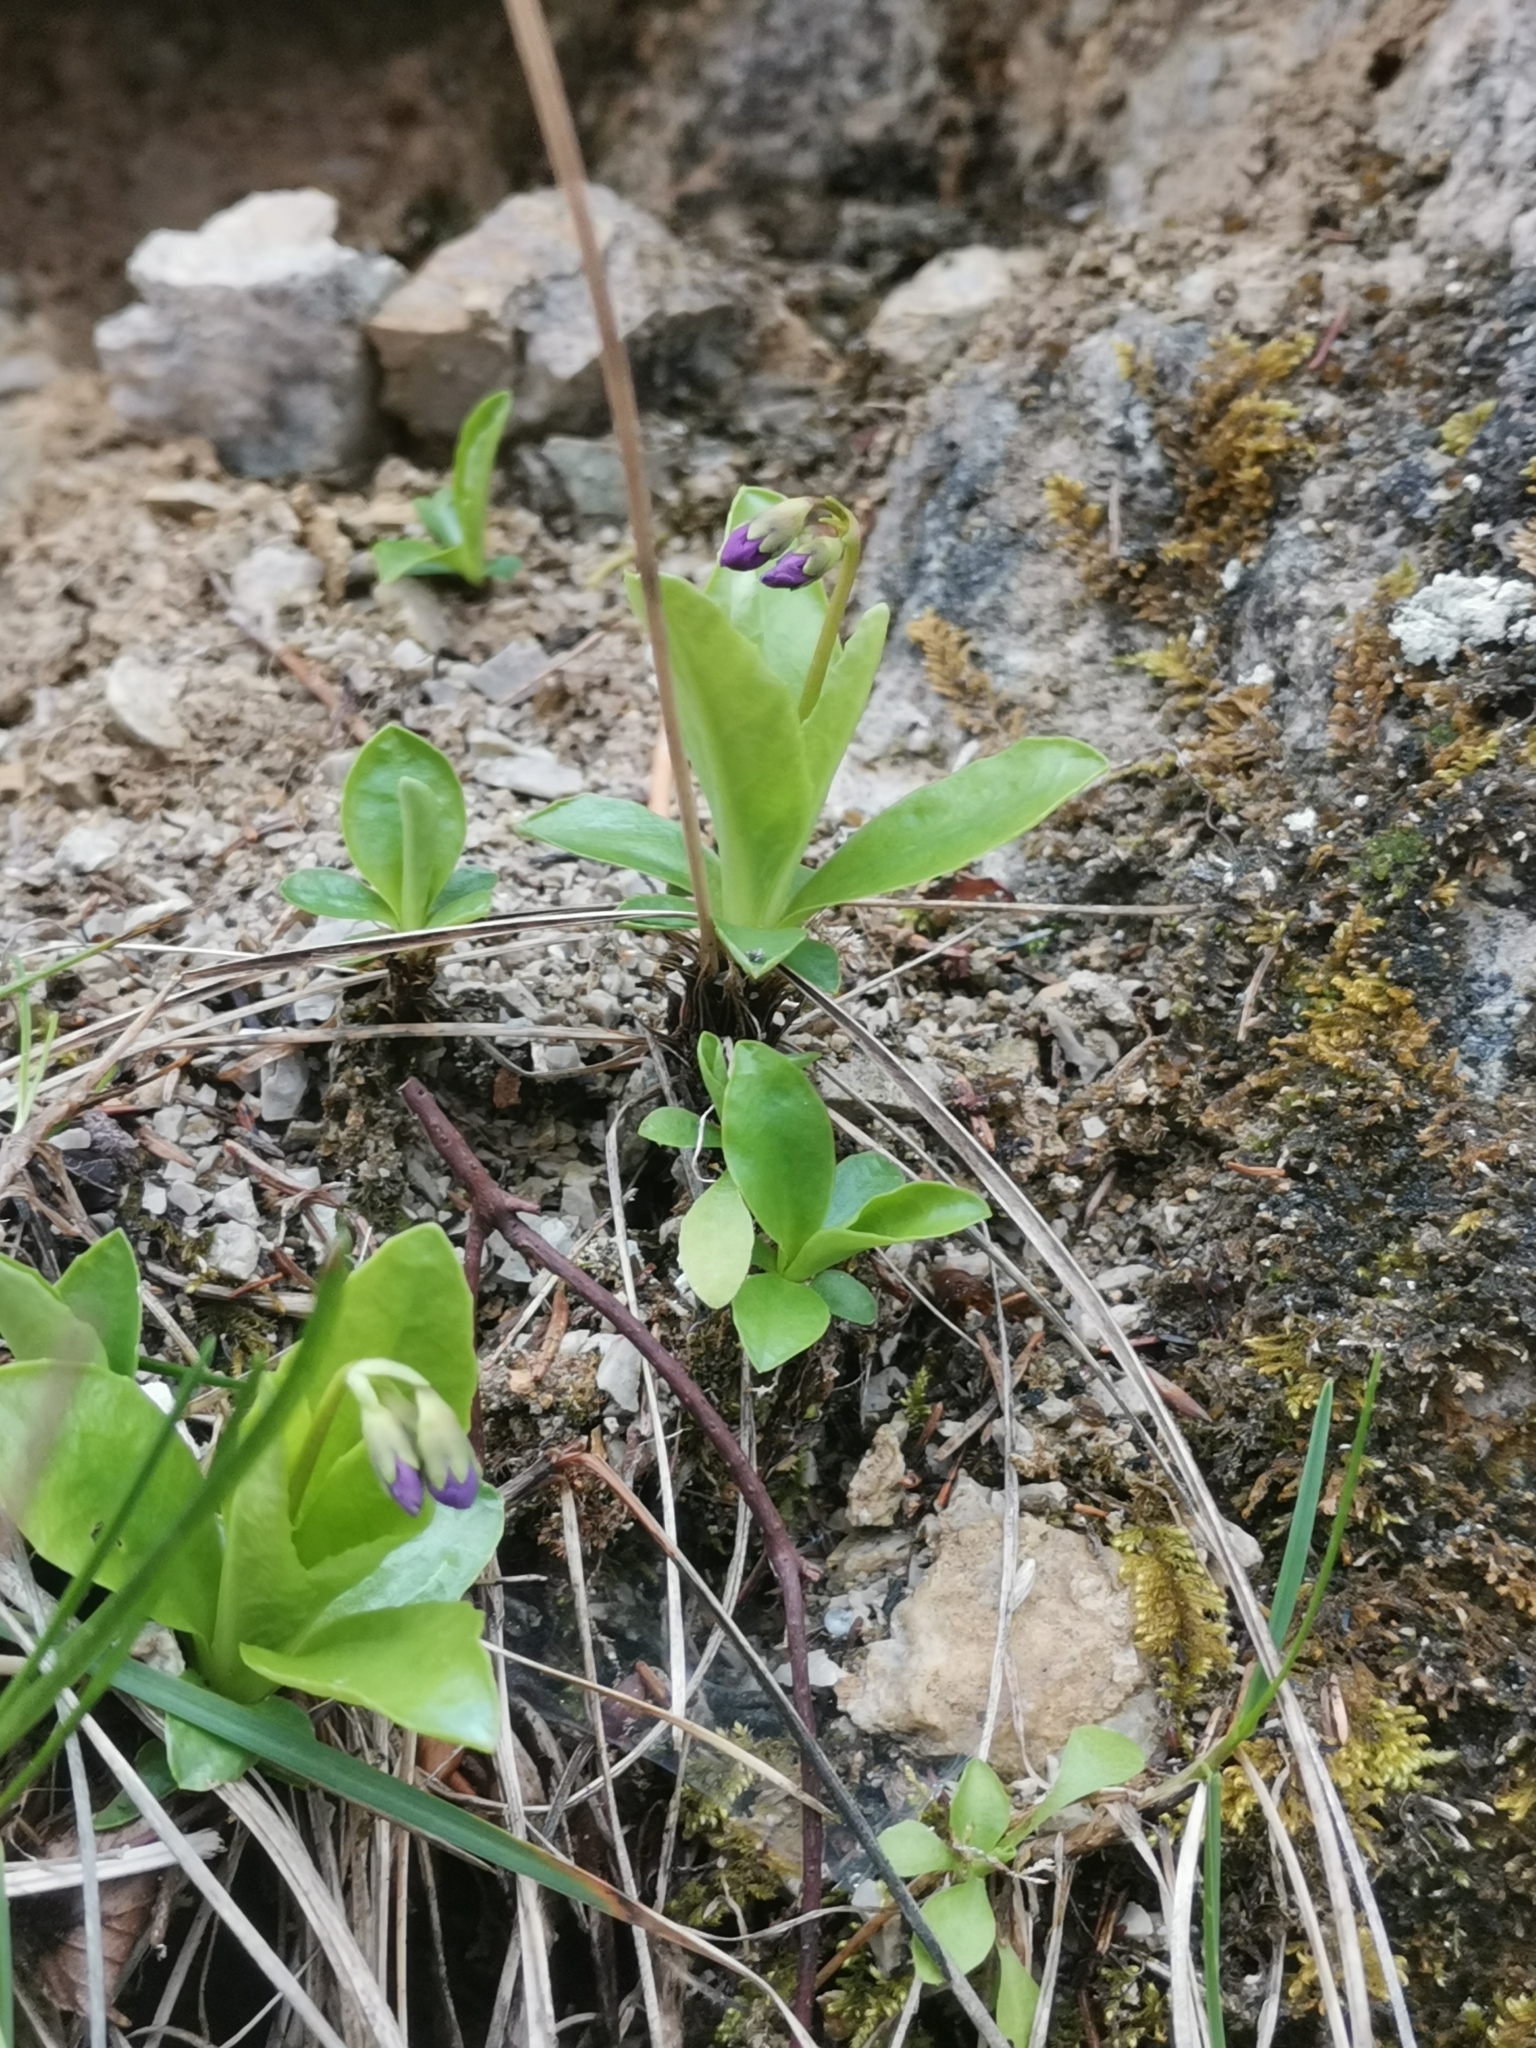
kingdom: Plantae
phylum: Tracheophyta
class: Magnoliopsida
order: Ericales
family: Primulaceae
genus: Primula
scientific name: Primula carniolica
